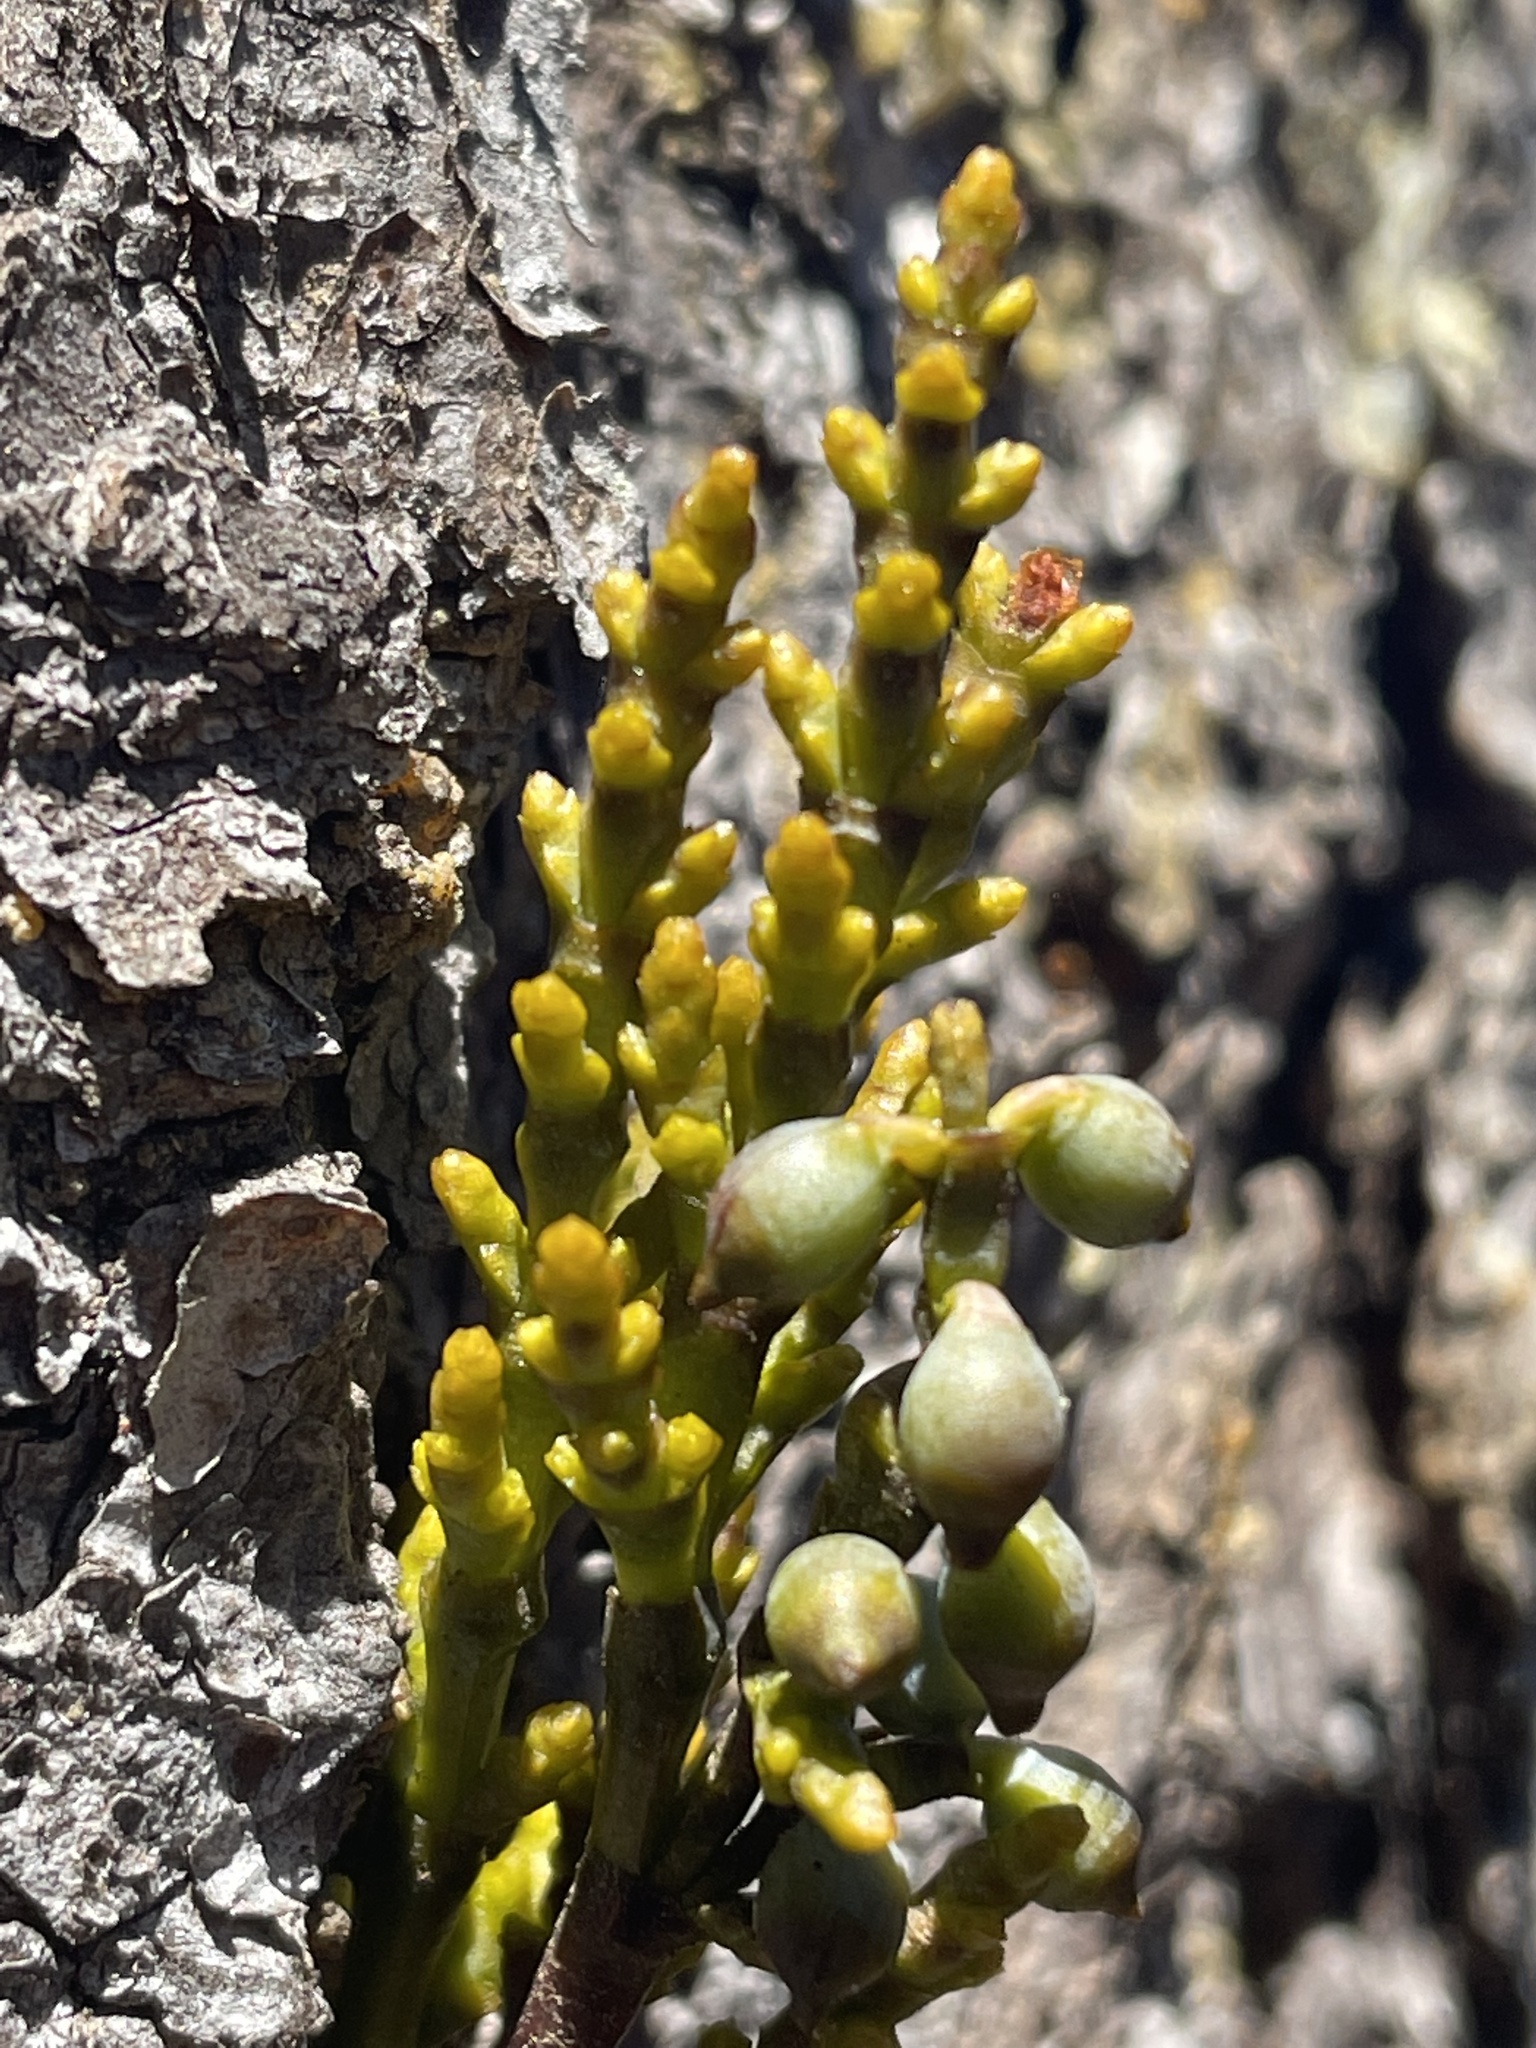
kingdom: Plantae
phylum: Tracheophyta
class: Magnoliopsida
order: Santalales
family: Viscaceae
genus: Arceuthobium
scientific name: Arceuthobium campylopodum
